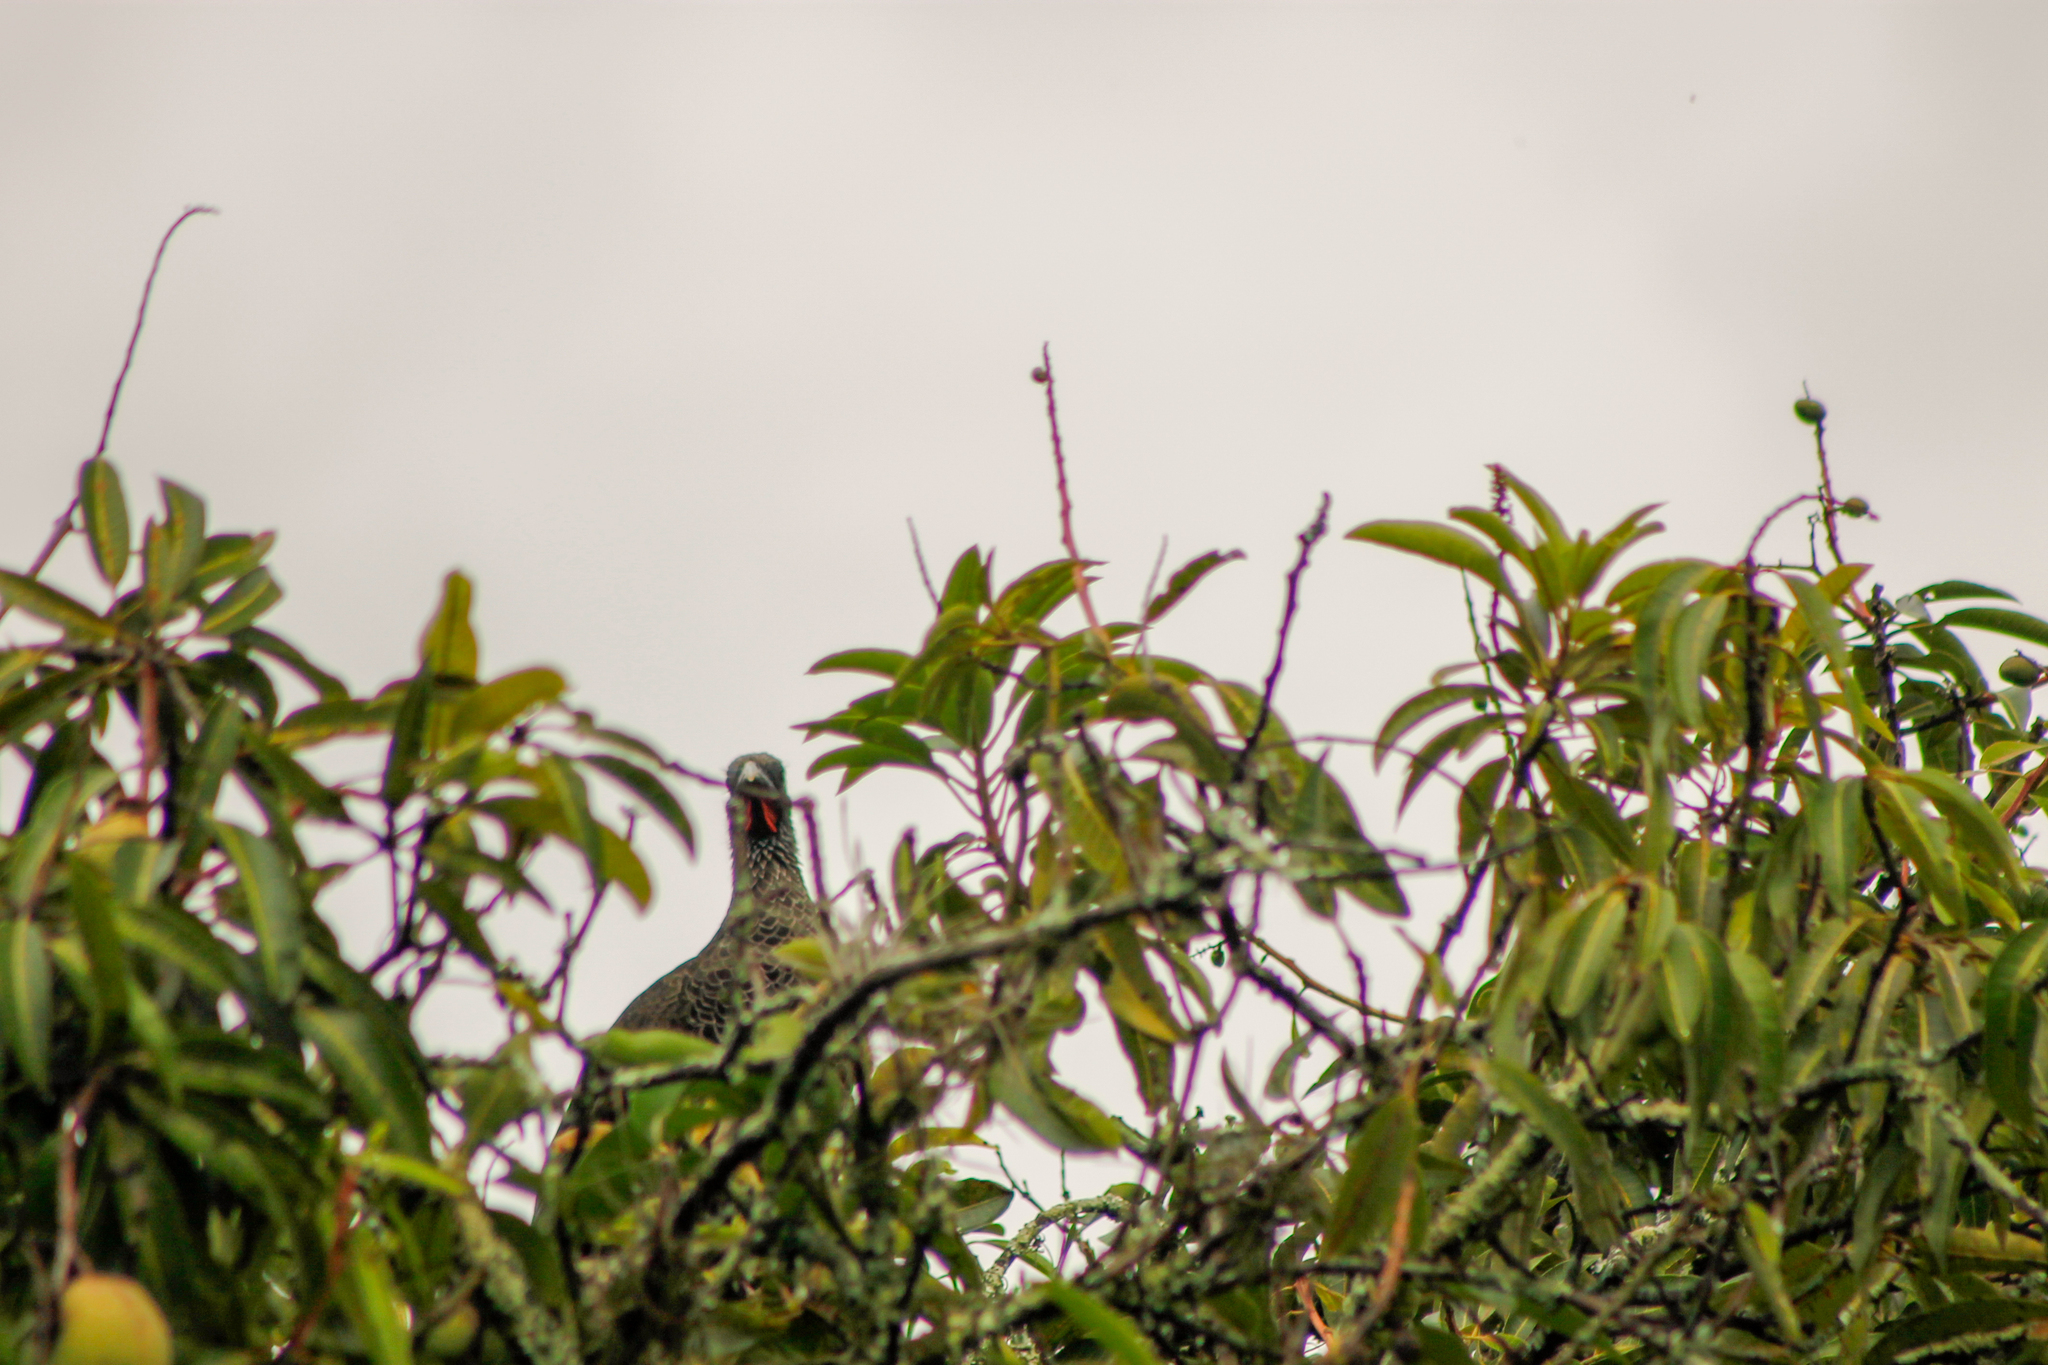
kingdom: Animalia
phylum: Chordata
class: Aves
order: Galliformes
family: Cracidae
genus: Ortalis
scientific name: Ortalis columbiana
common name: Colombian chachalaca
